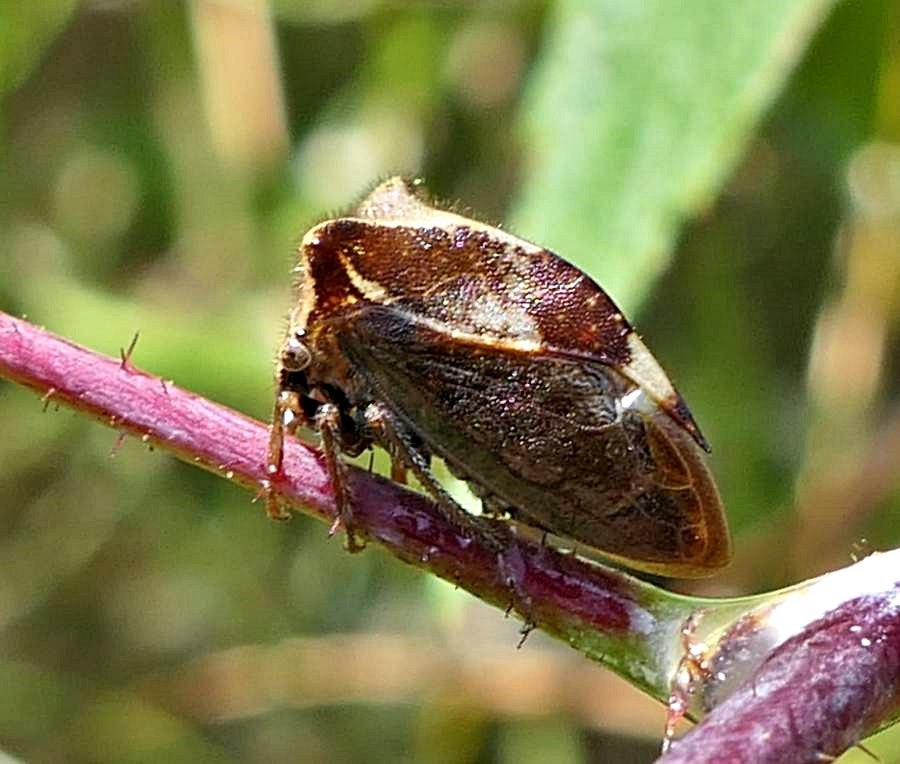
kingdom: Animalia
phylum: Arthropoda
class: Insecta
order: Hemiptera
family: Membracidae
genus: Stictocephala
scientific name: Stictocephala diceros
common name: Two-horned treehopper
